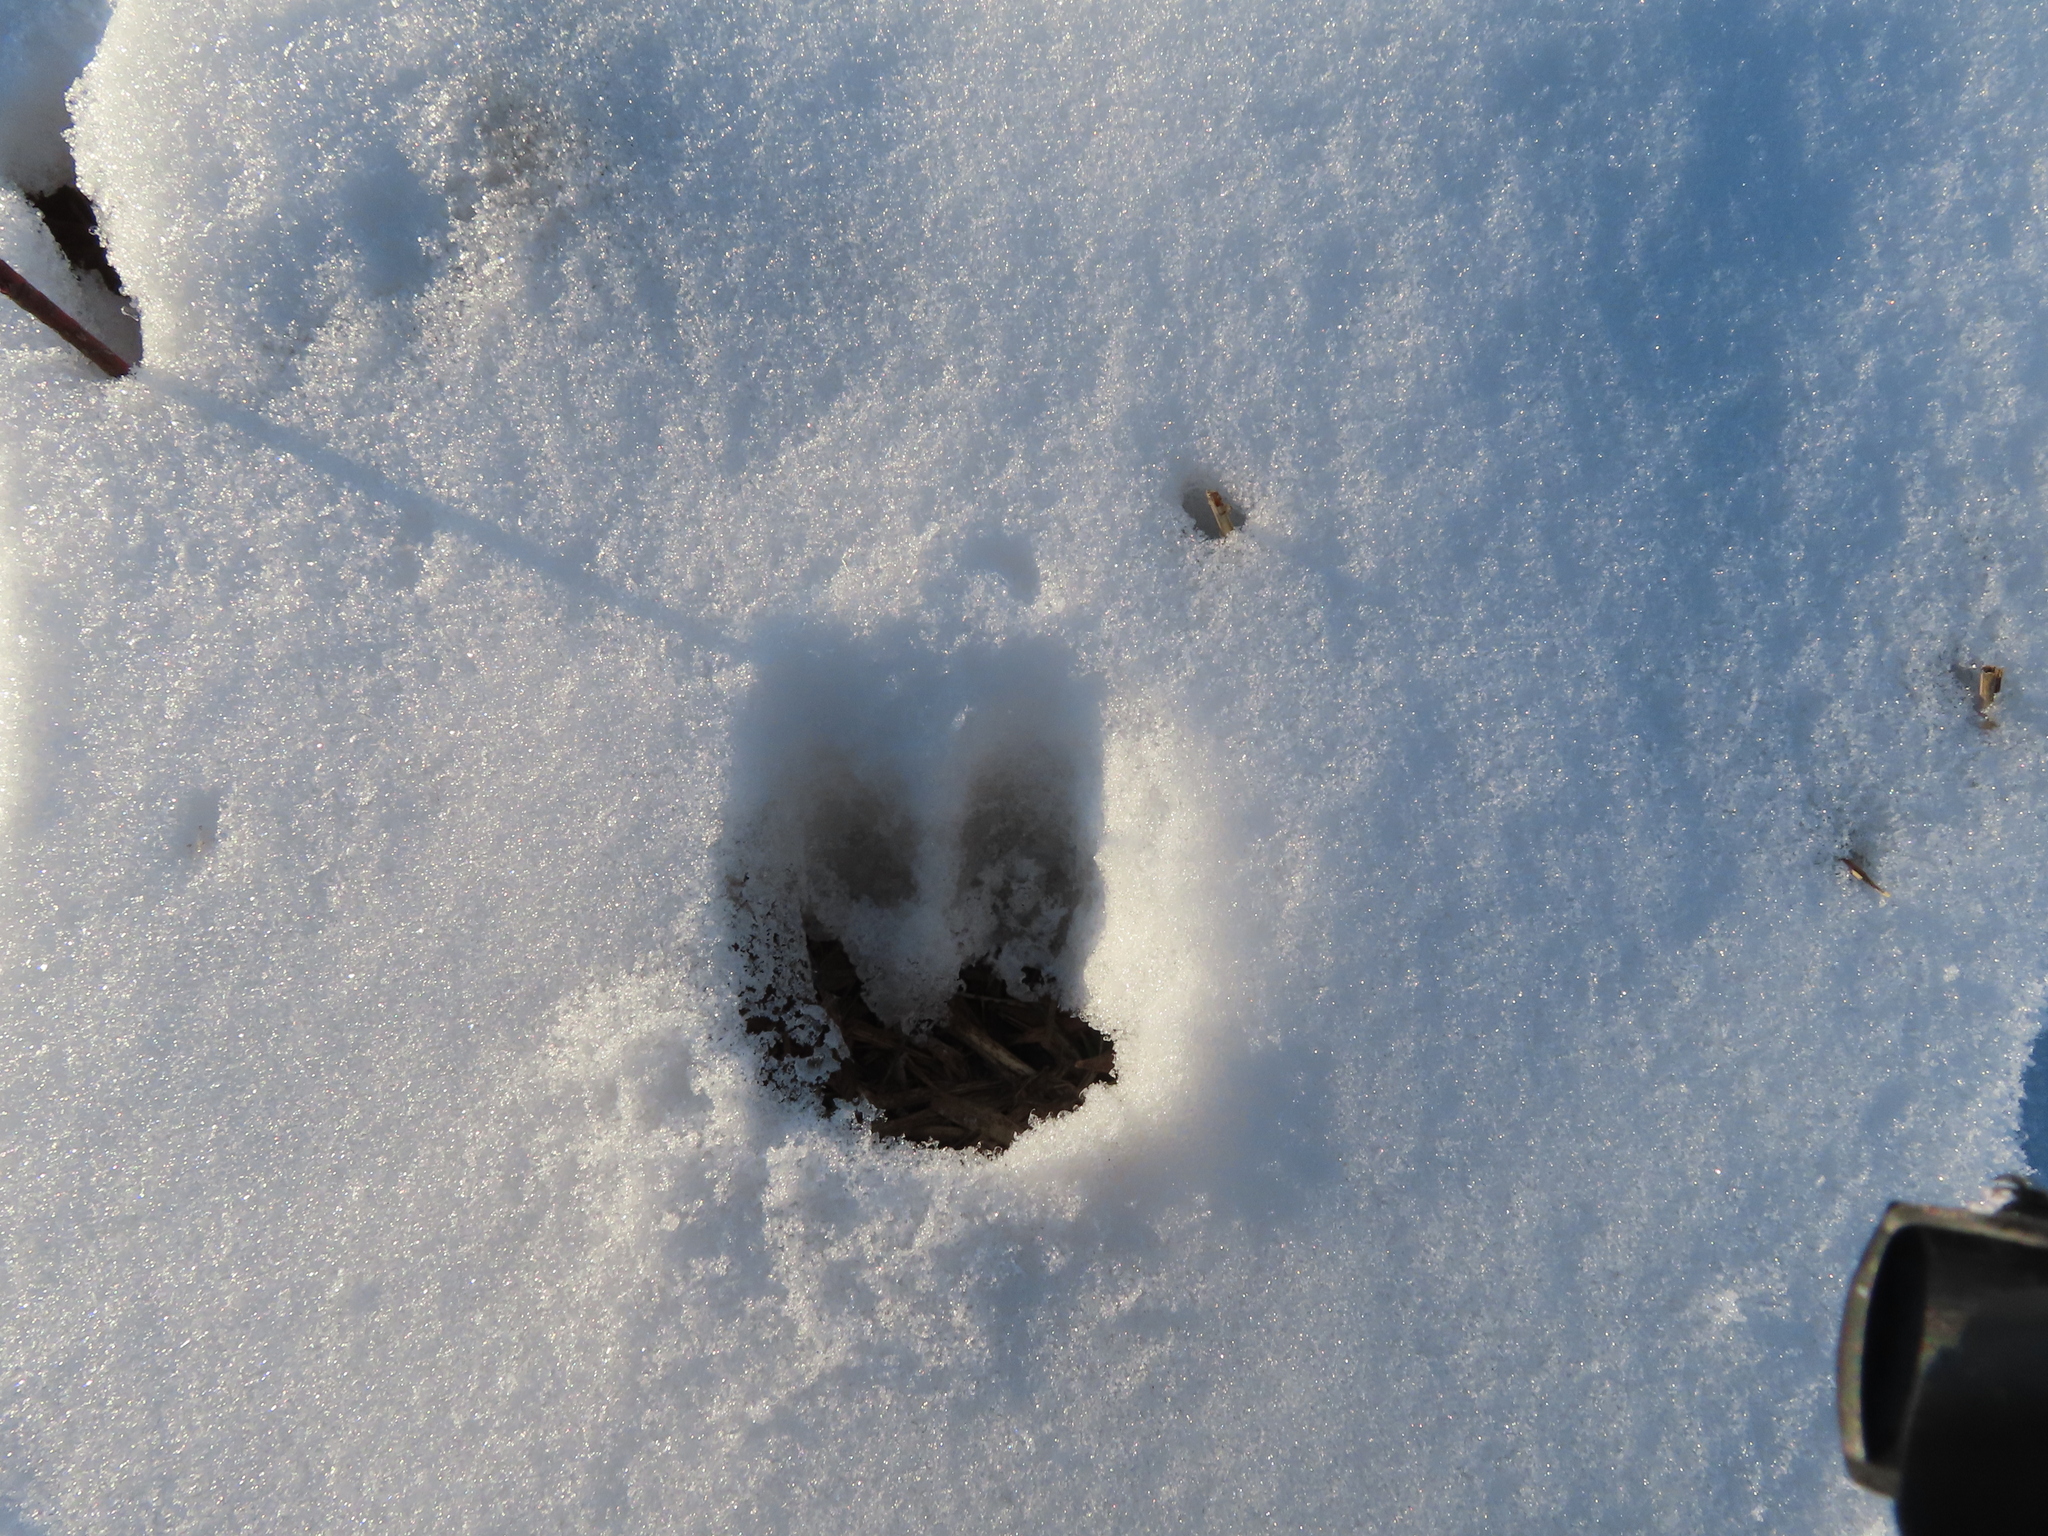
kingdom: Animalia
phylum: Chordata
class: Mammalia
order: Artiodactyla
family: Cervidae
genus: Odocoileus
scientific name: Odocoileus virginianus
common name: White-tailed deer
